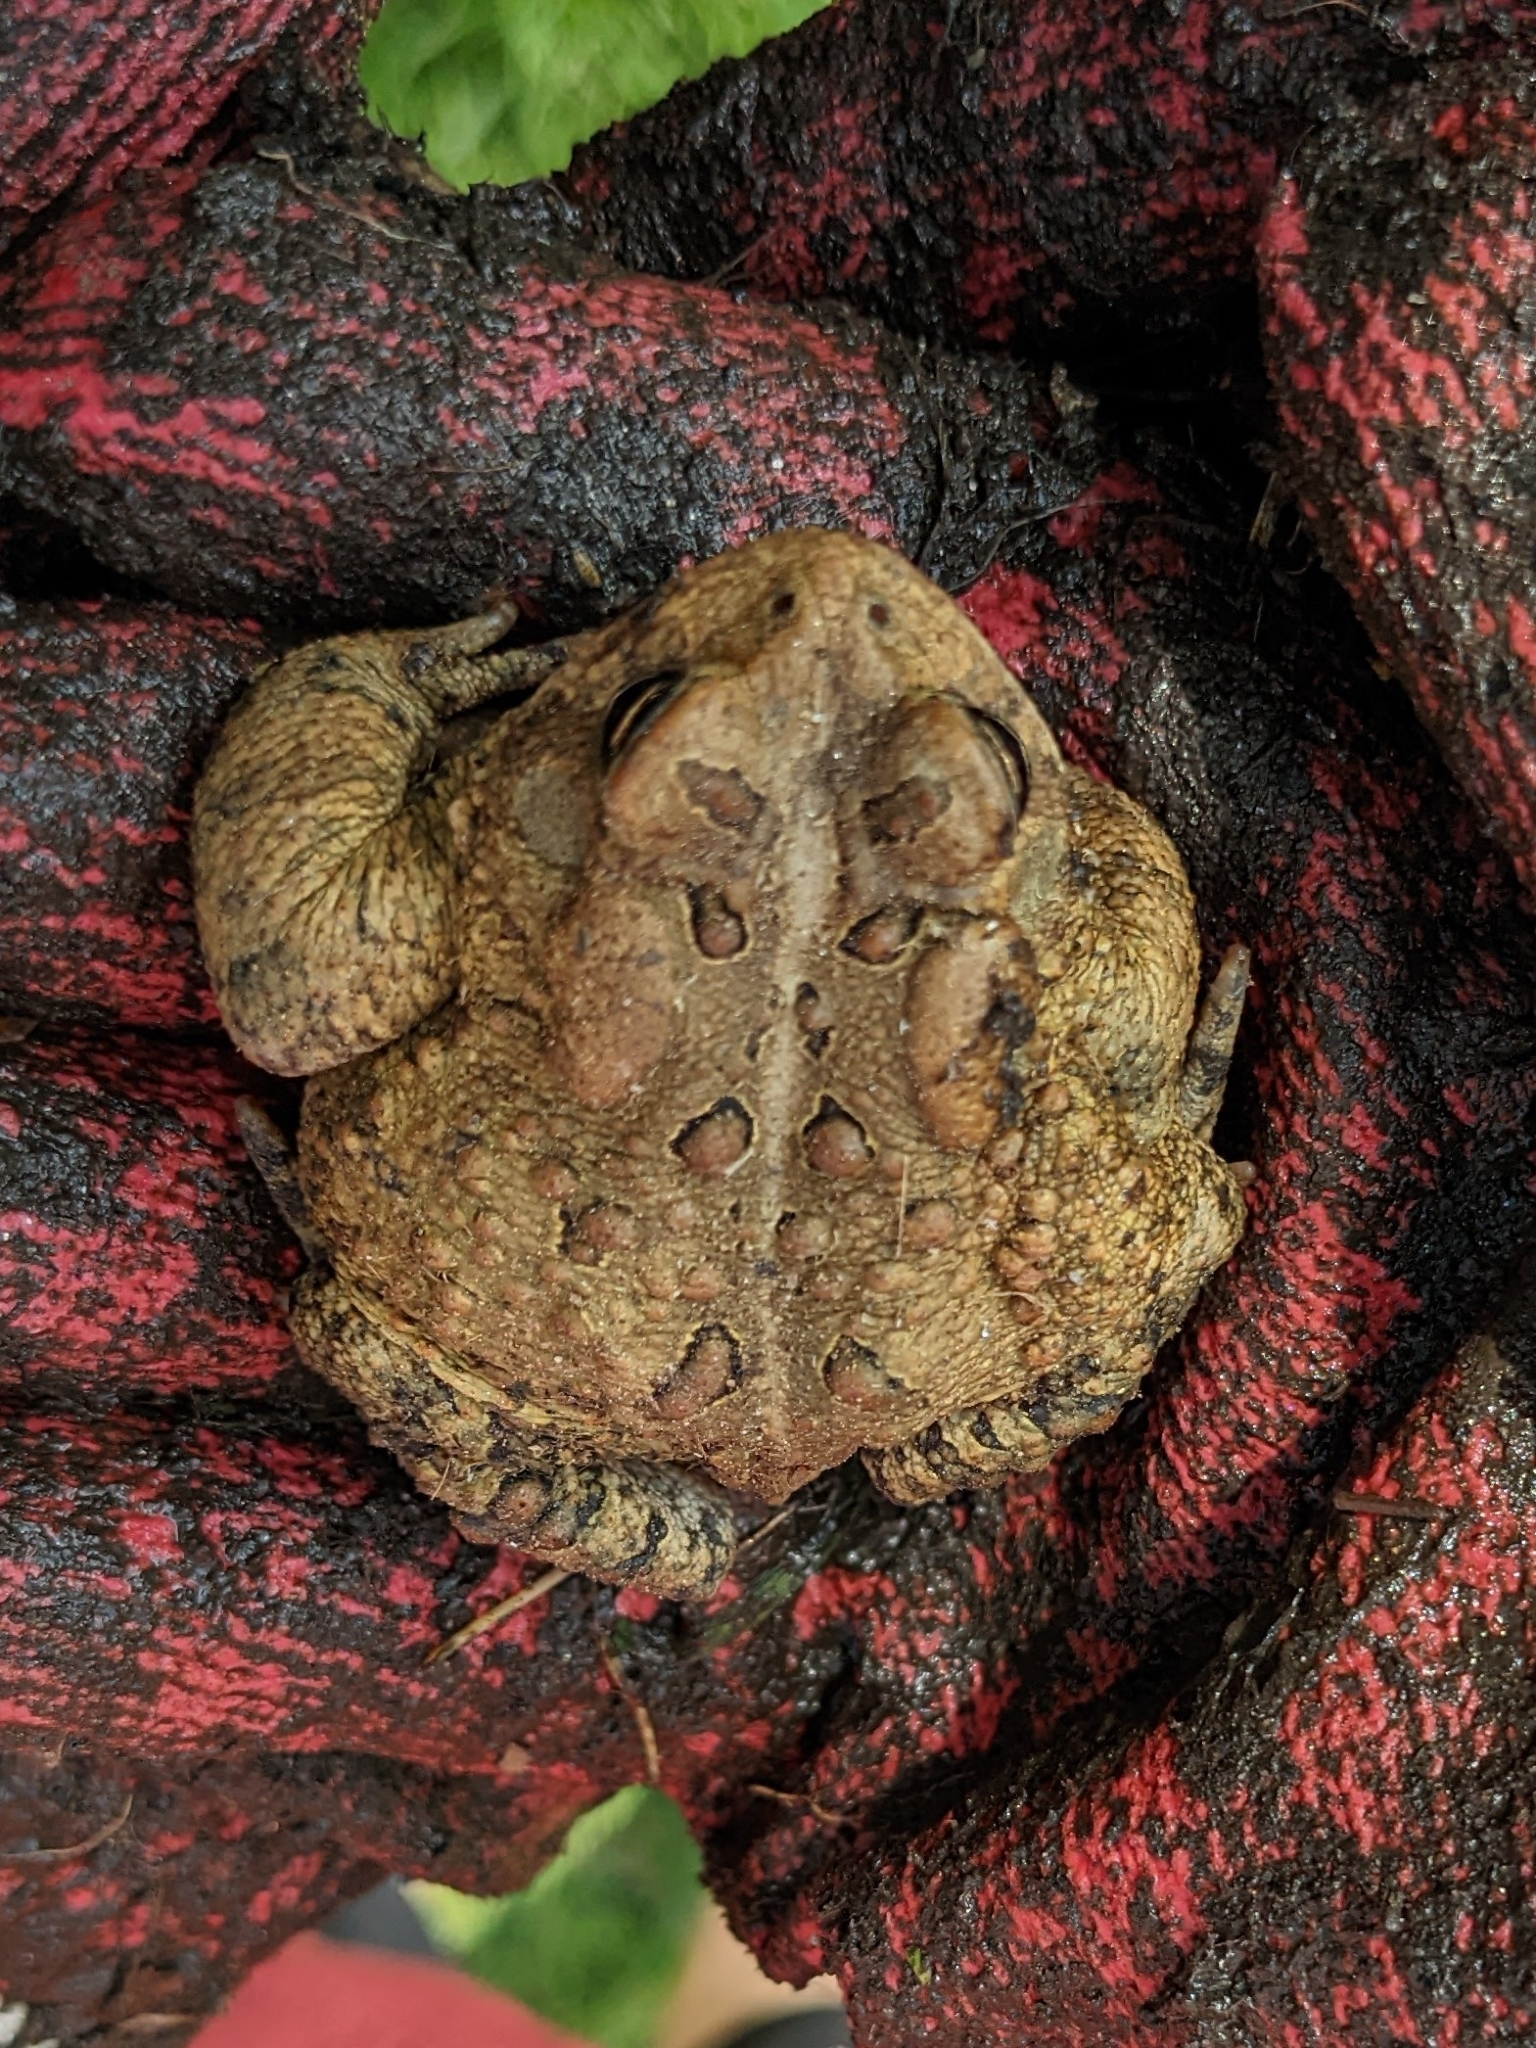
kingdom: Animalia
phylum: Chordata
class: Amphibia
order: Anura
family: Bufonidae
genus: Anaxyrus
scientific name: Anaxyrus americanus
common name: American toad
